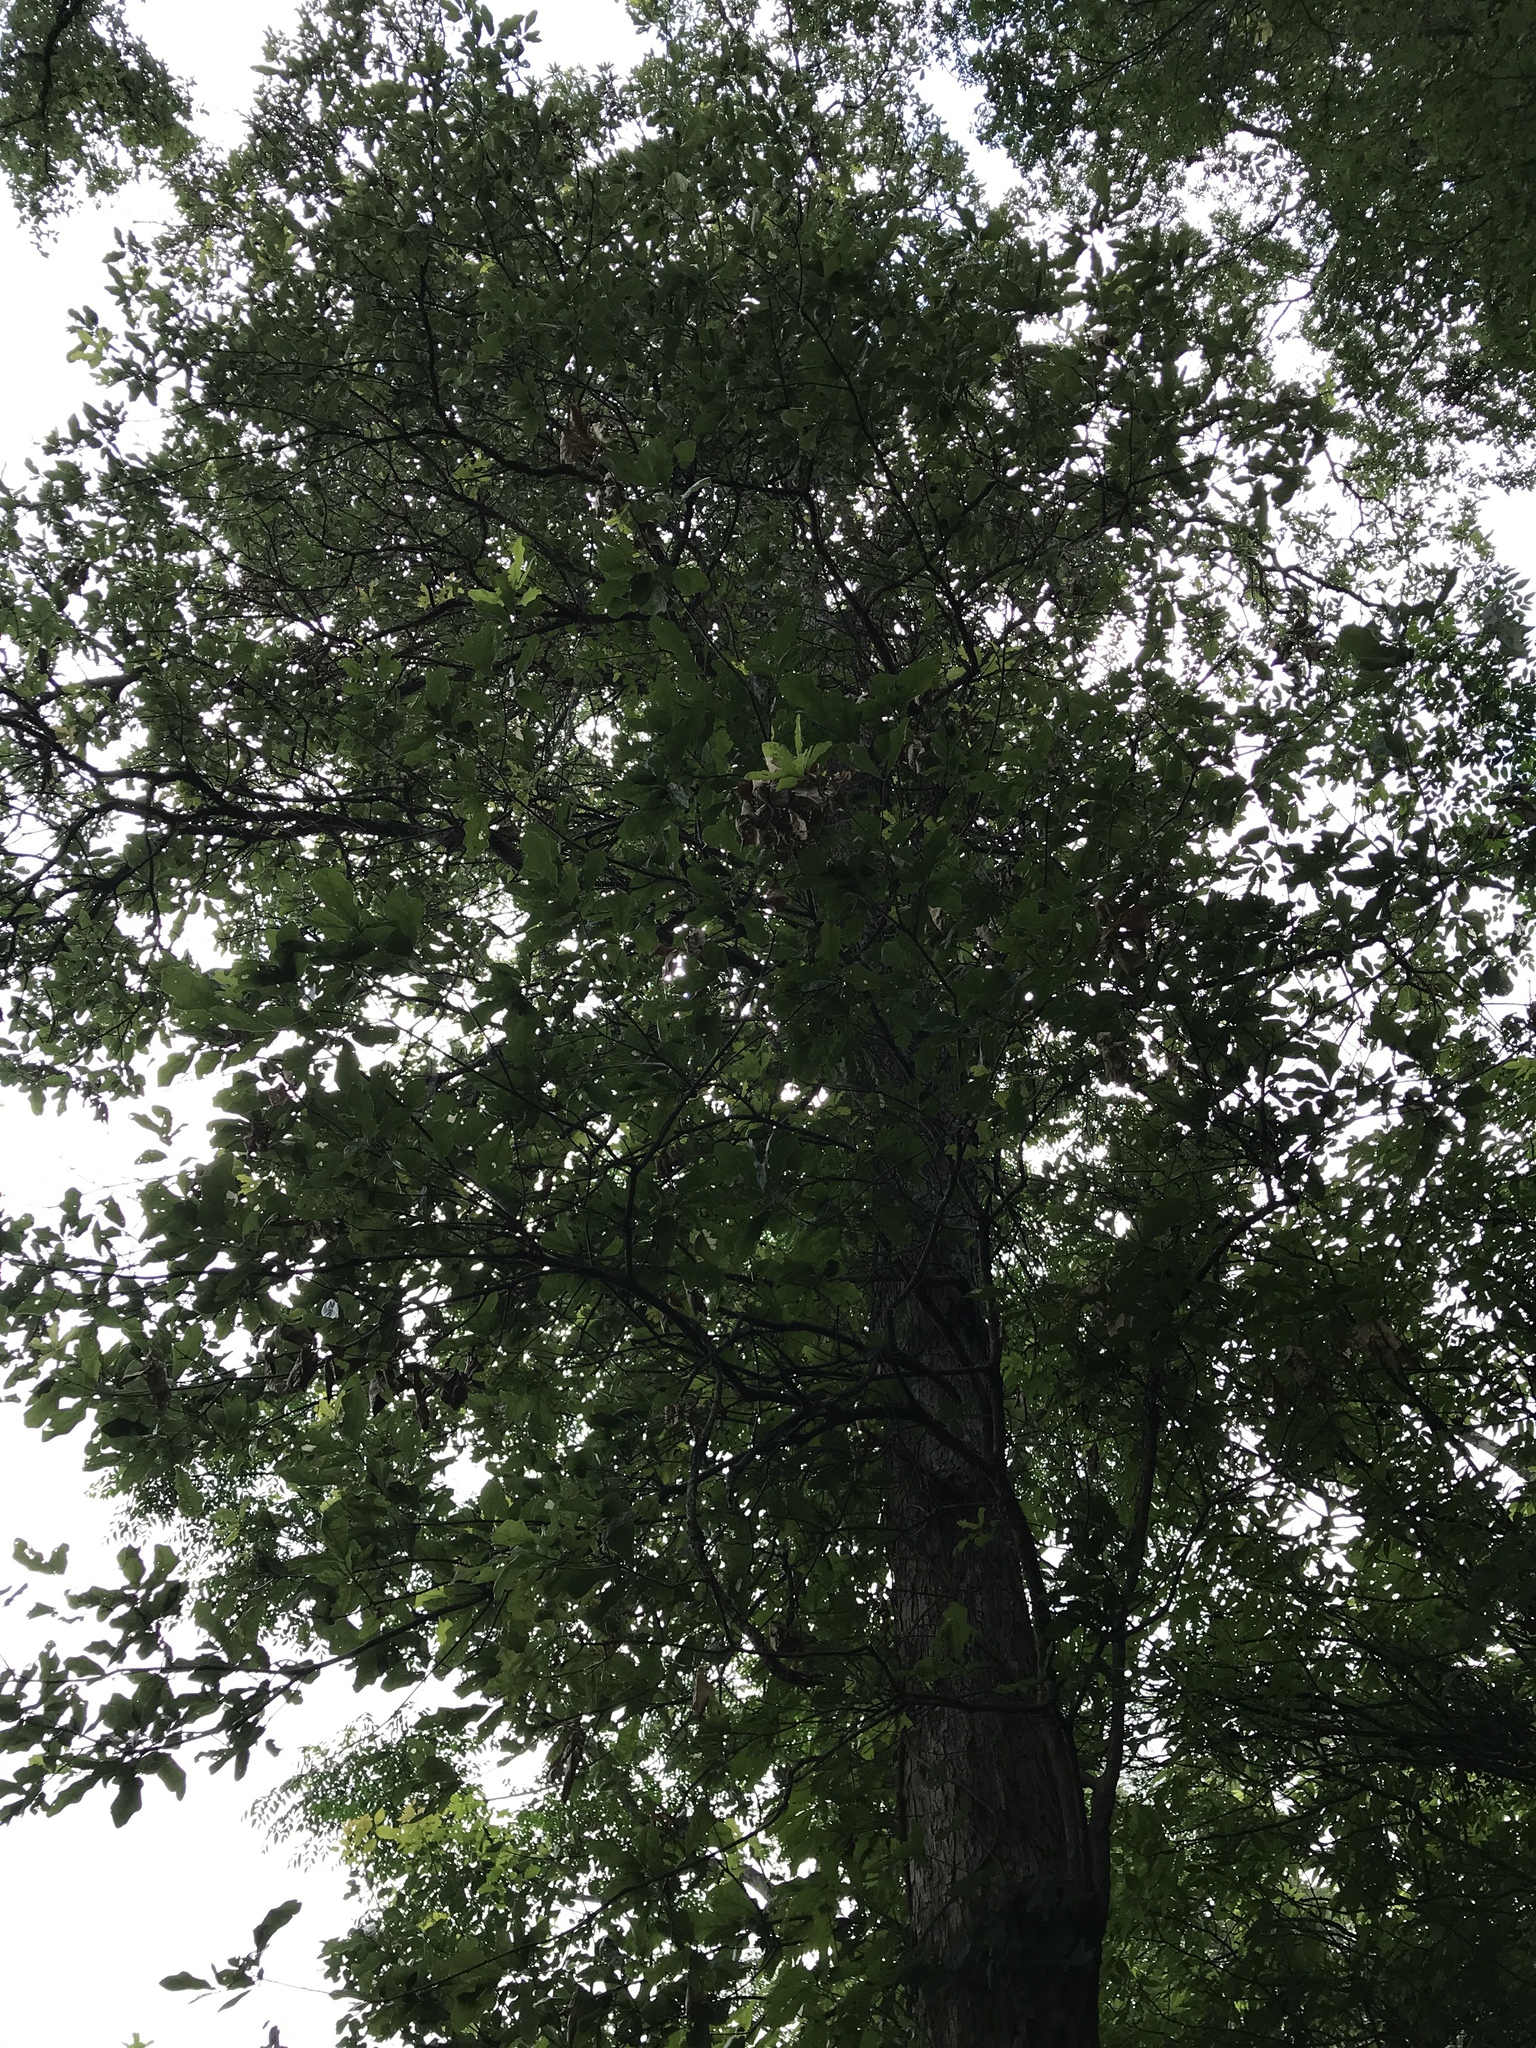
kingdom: Plantae
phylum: Tracheophyta
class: Magnoliopsida
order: Fagales
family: Fagaceae
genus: Quercus
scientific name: Quercus sinuata
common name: Durand oak
